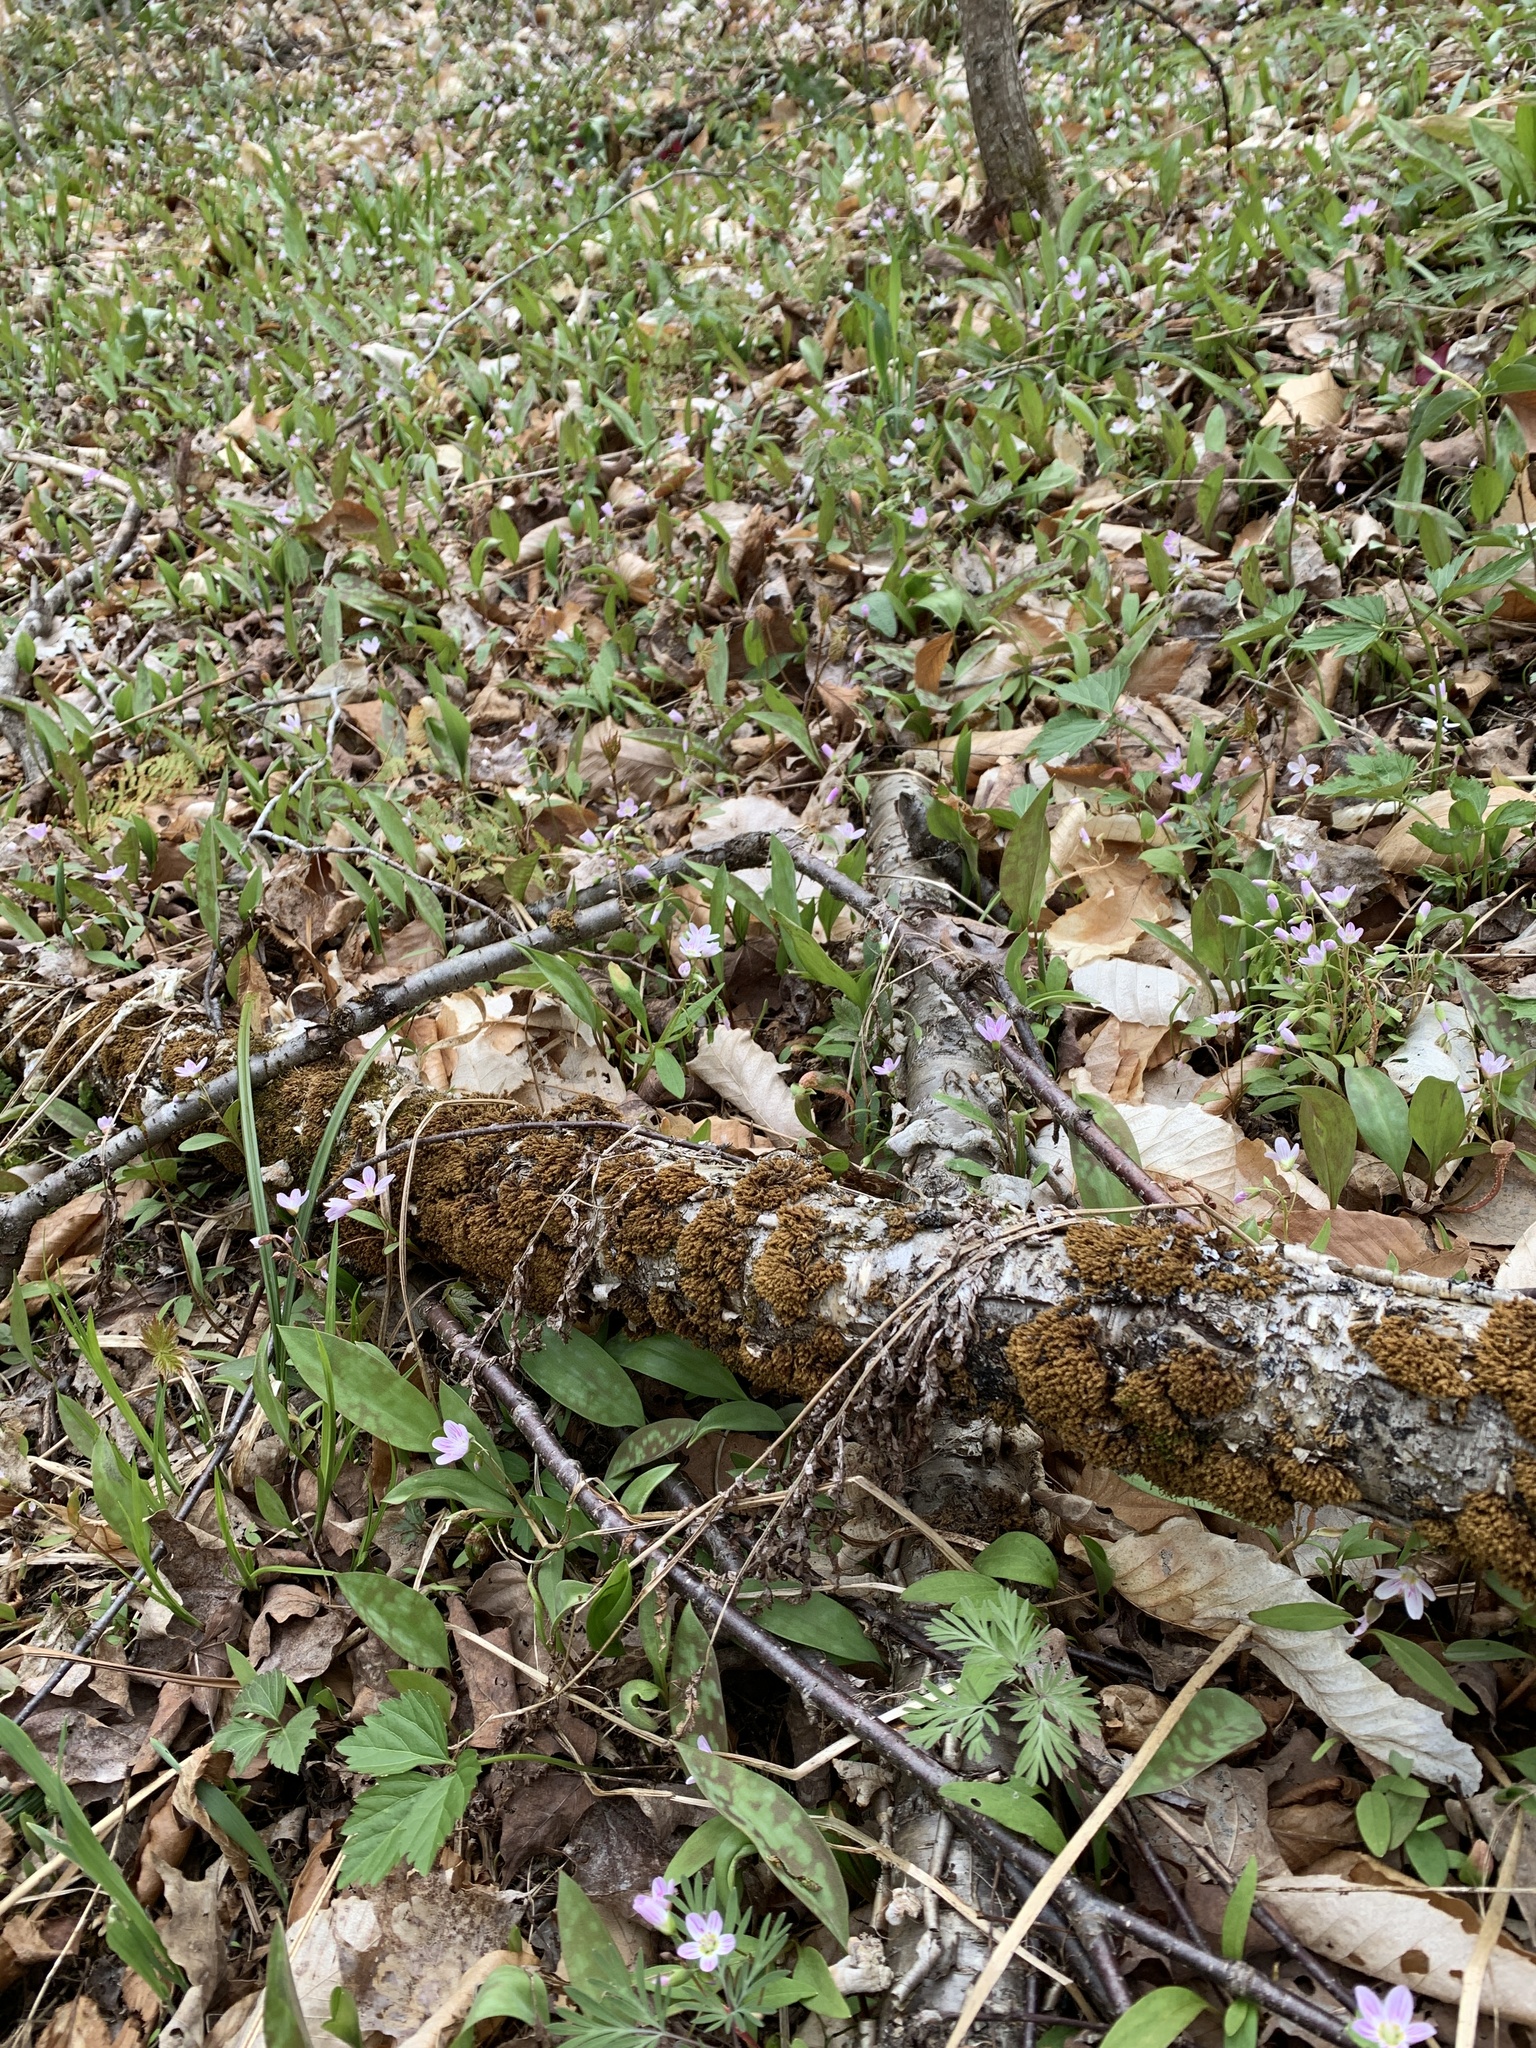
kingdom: Plantae
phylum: Tracheophyta
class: Magnoliopsida
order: Caryophyllales
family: Montiaceae
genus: Claytonia
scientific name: Claytonia caroliniana
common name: Carolina spring beauty
